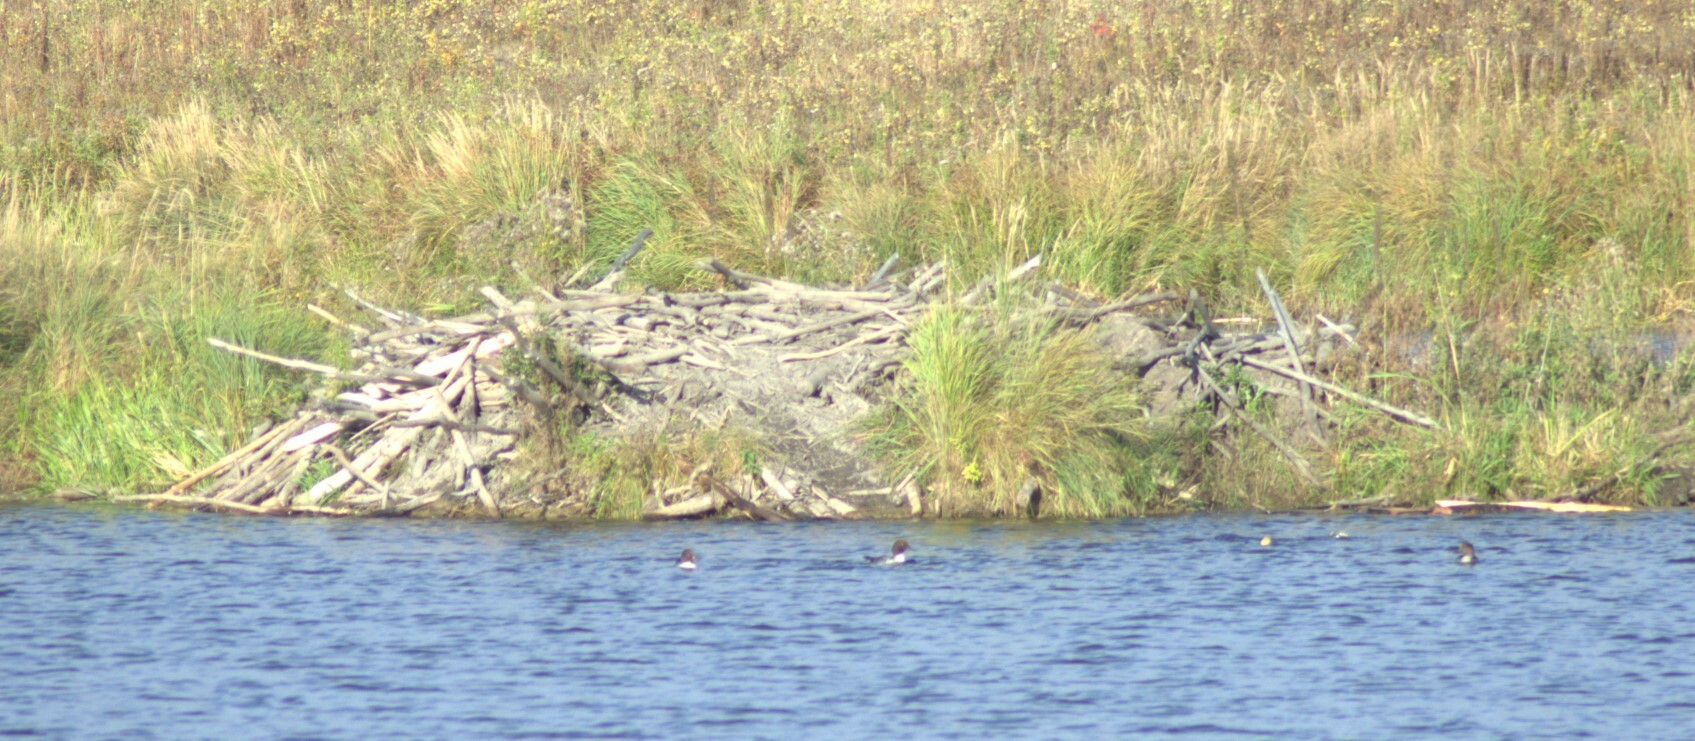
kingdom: Animalia
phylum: Chordata
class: Mammalia
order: Rodentia
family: Castoridae
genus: Castor
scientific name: Castor canadensis
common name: American beaver
